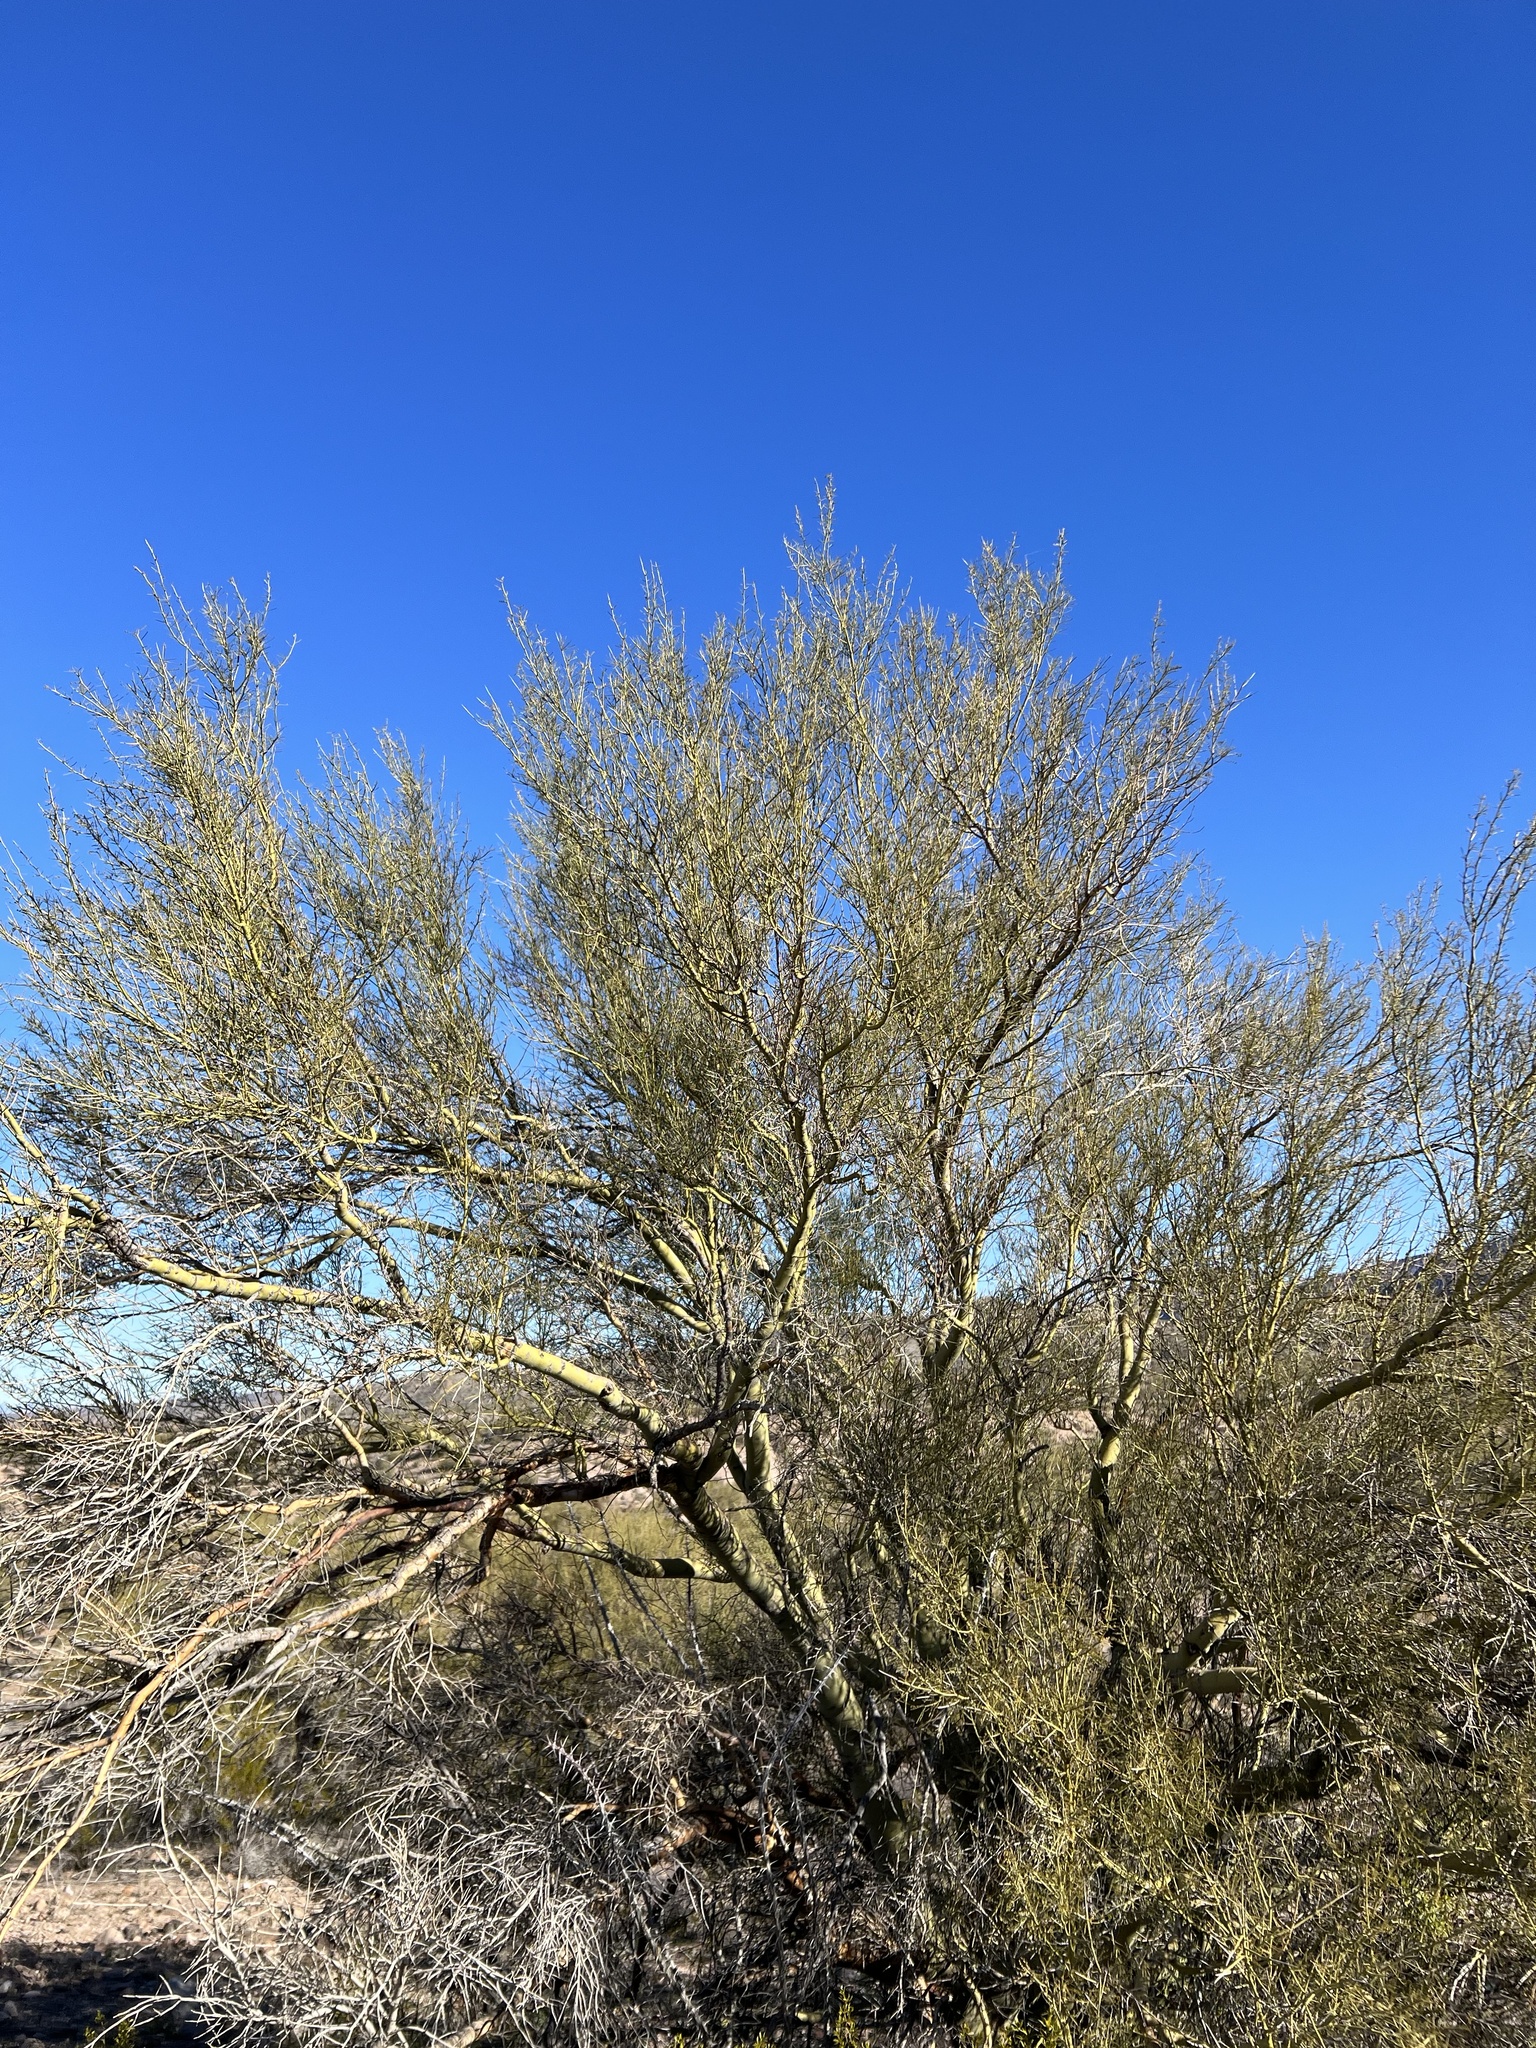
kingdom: Plantae
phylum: Tracheophyta
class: Magnoliopsida
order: Fabales
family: Fabaceae
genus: Parkinsonia
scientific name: Parkinsonia microphylla
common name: Yellow paloverde
